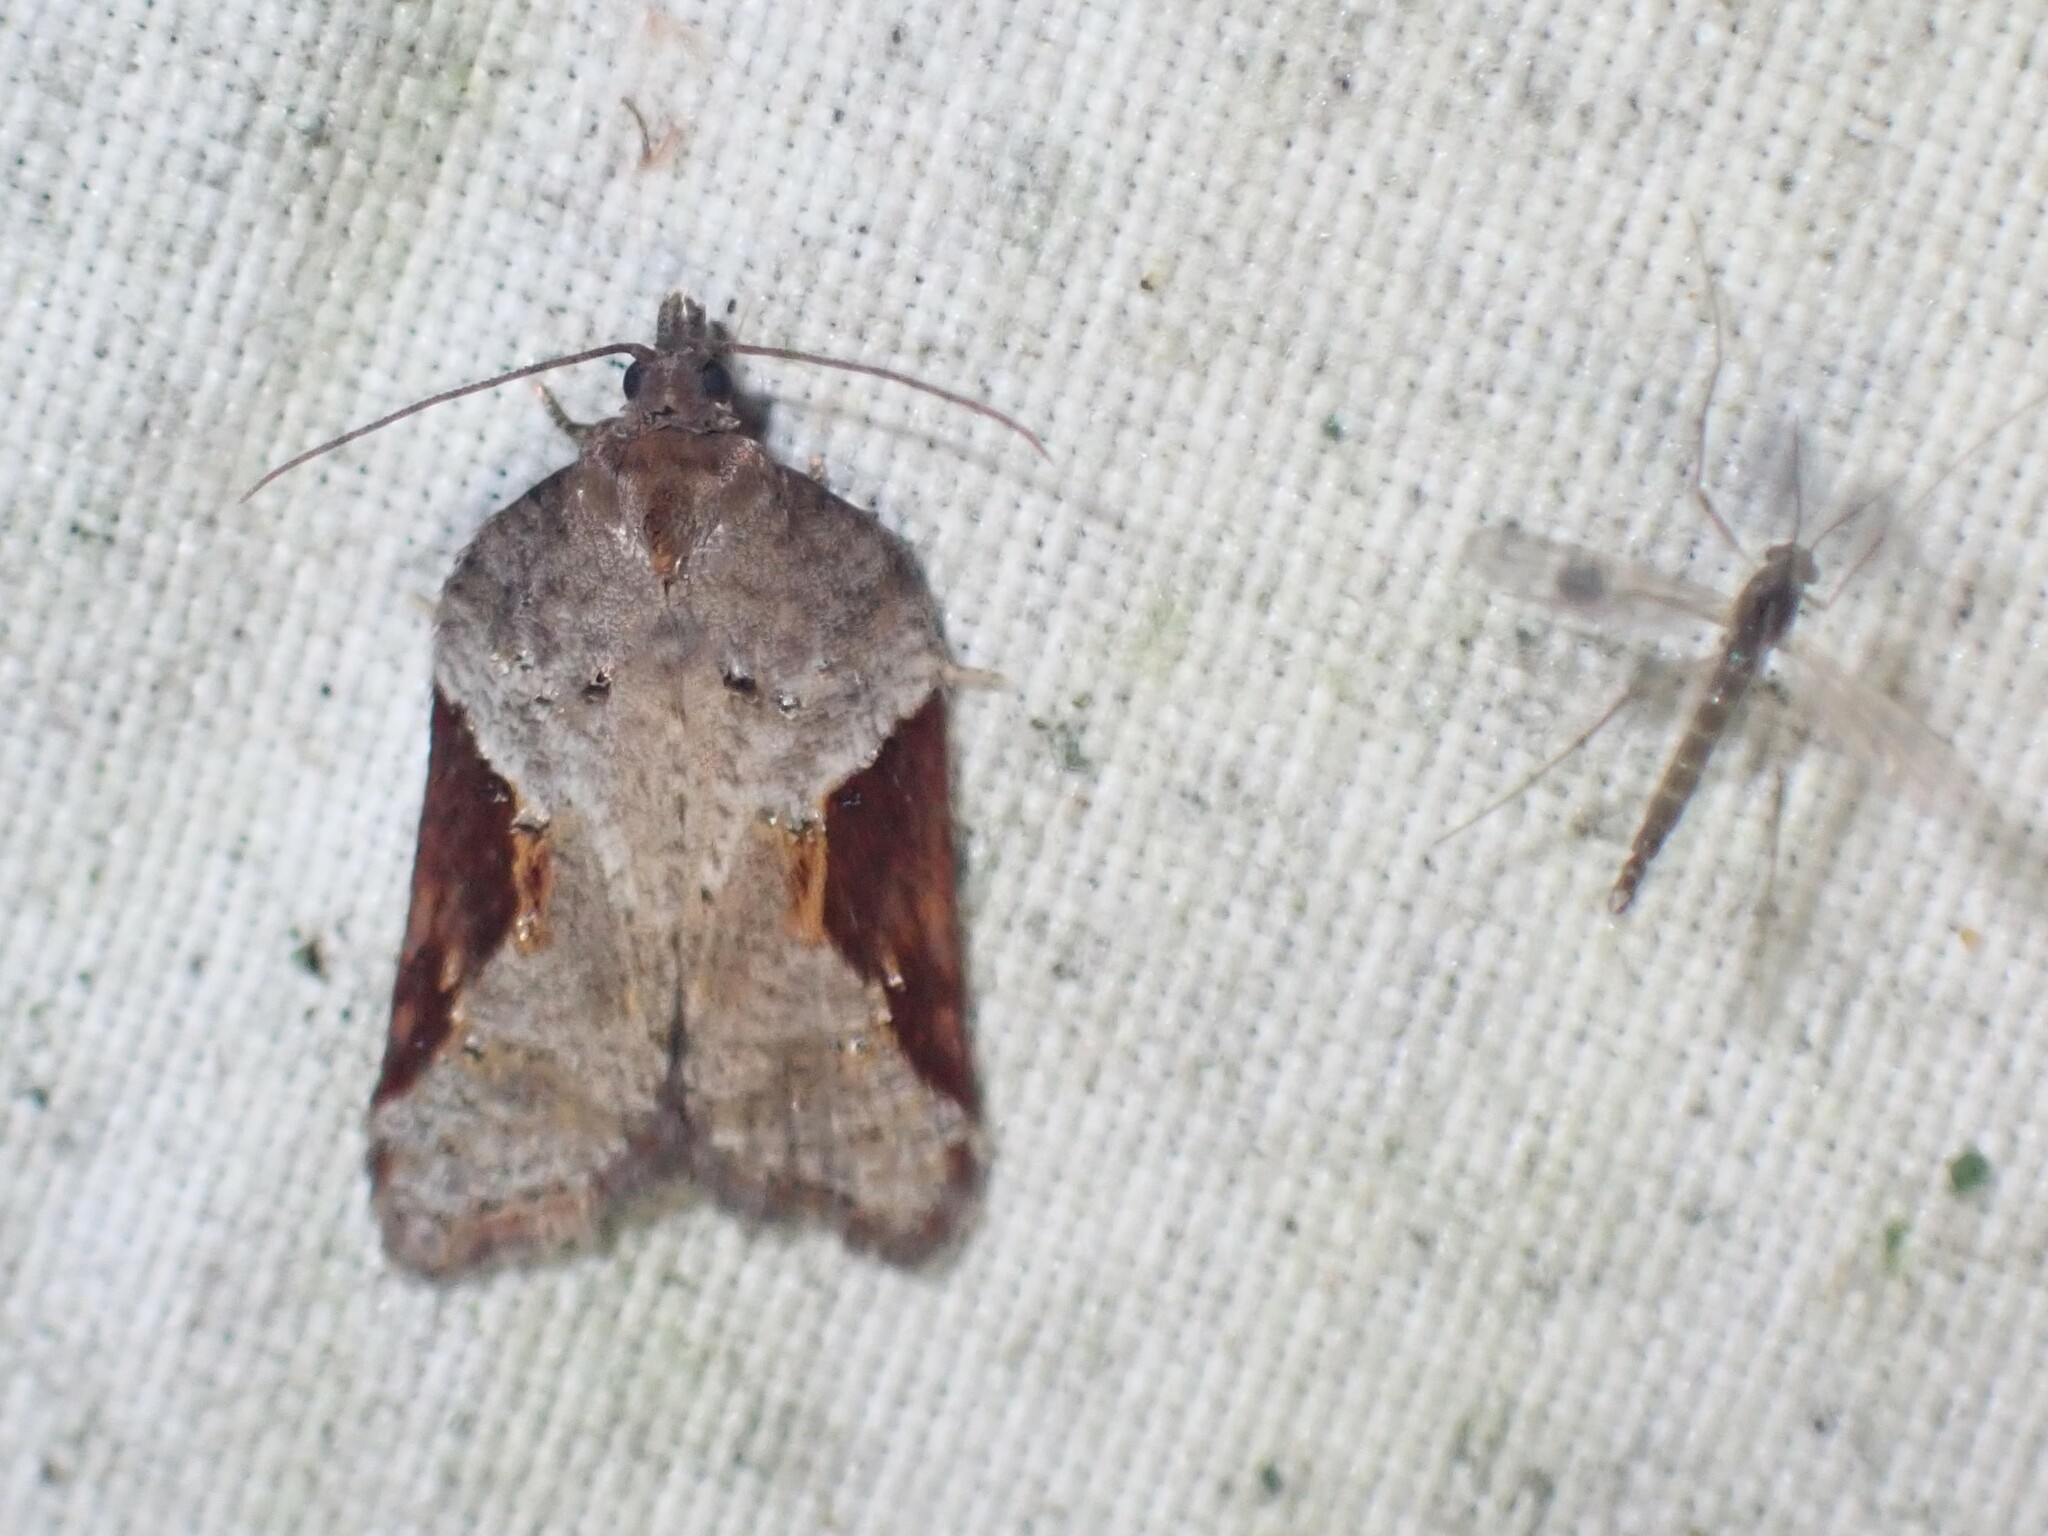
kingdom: Animalia
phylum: Arthropoda
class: Insecta
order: Lepidoptera
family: Tortricidae
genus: Acleris
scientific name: Acleris macdunnoughi
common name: Macdunnough's acleris
